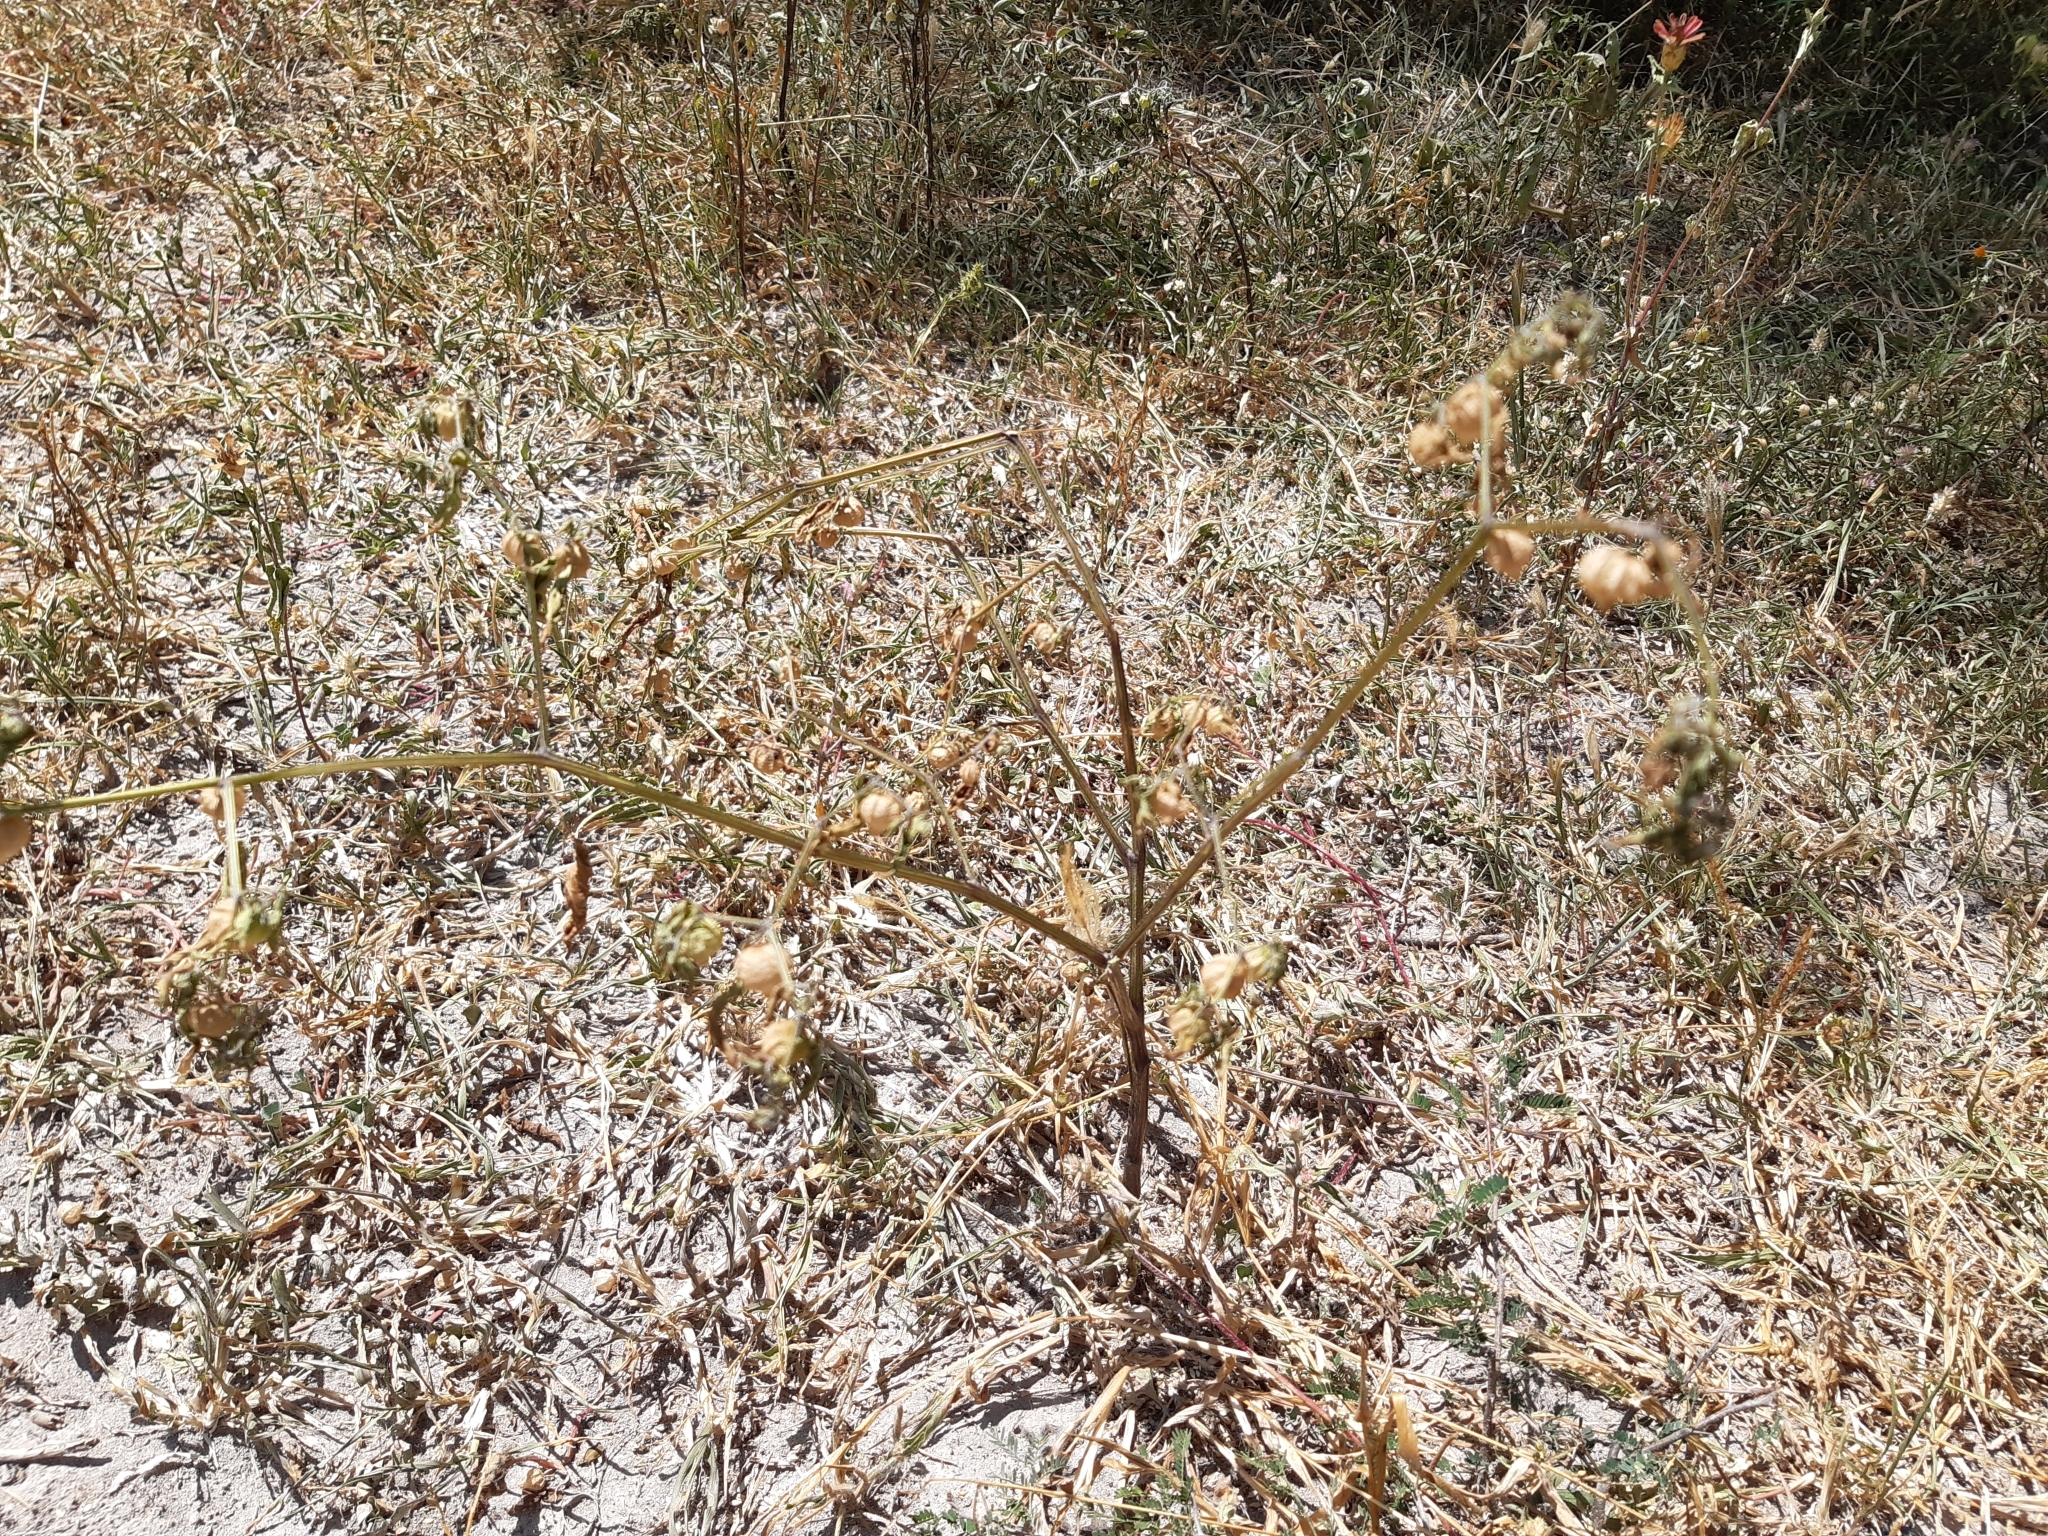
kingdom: Plantae
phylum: Tracheophyta
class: Magnoliopsida
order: Solanales
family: Solanaceae
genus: Physalis
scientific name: Physalis solanacea
